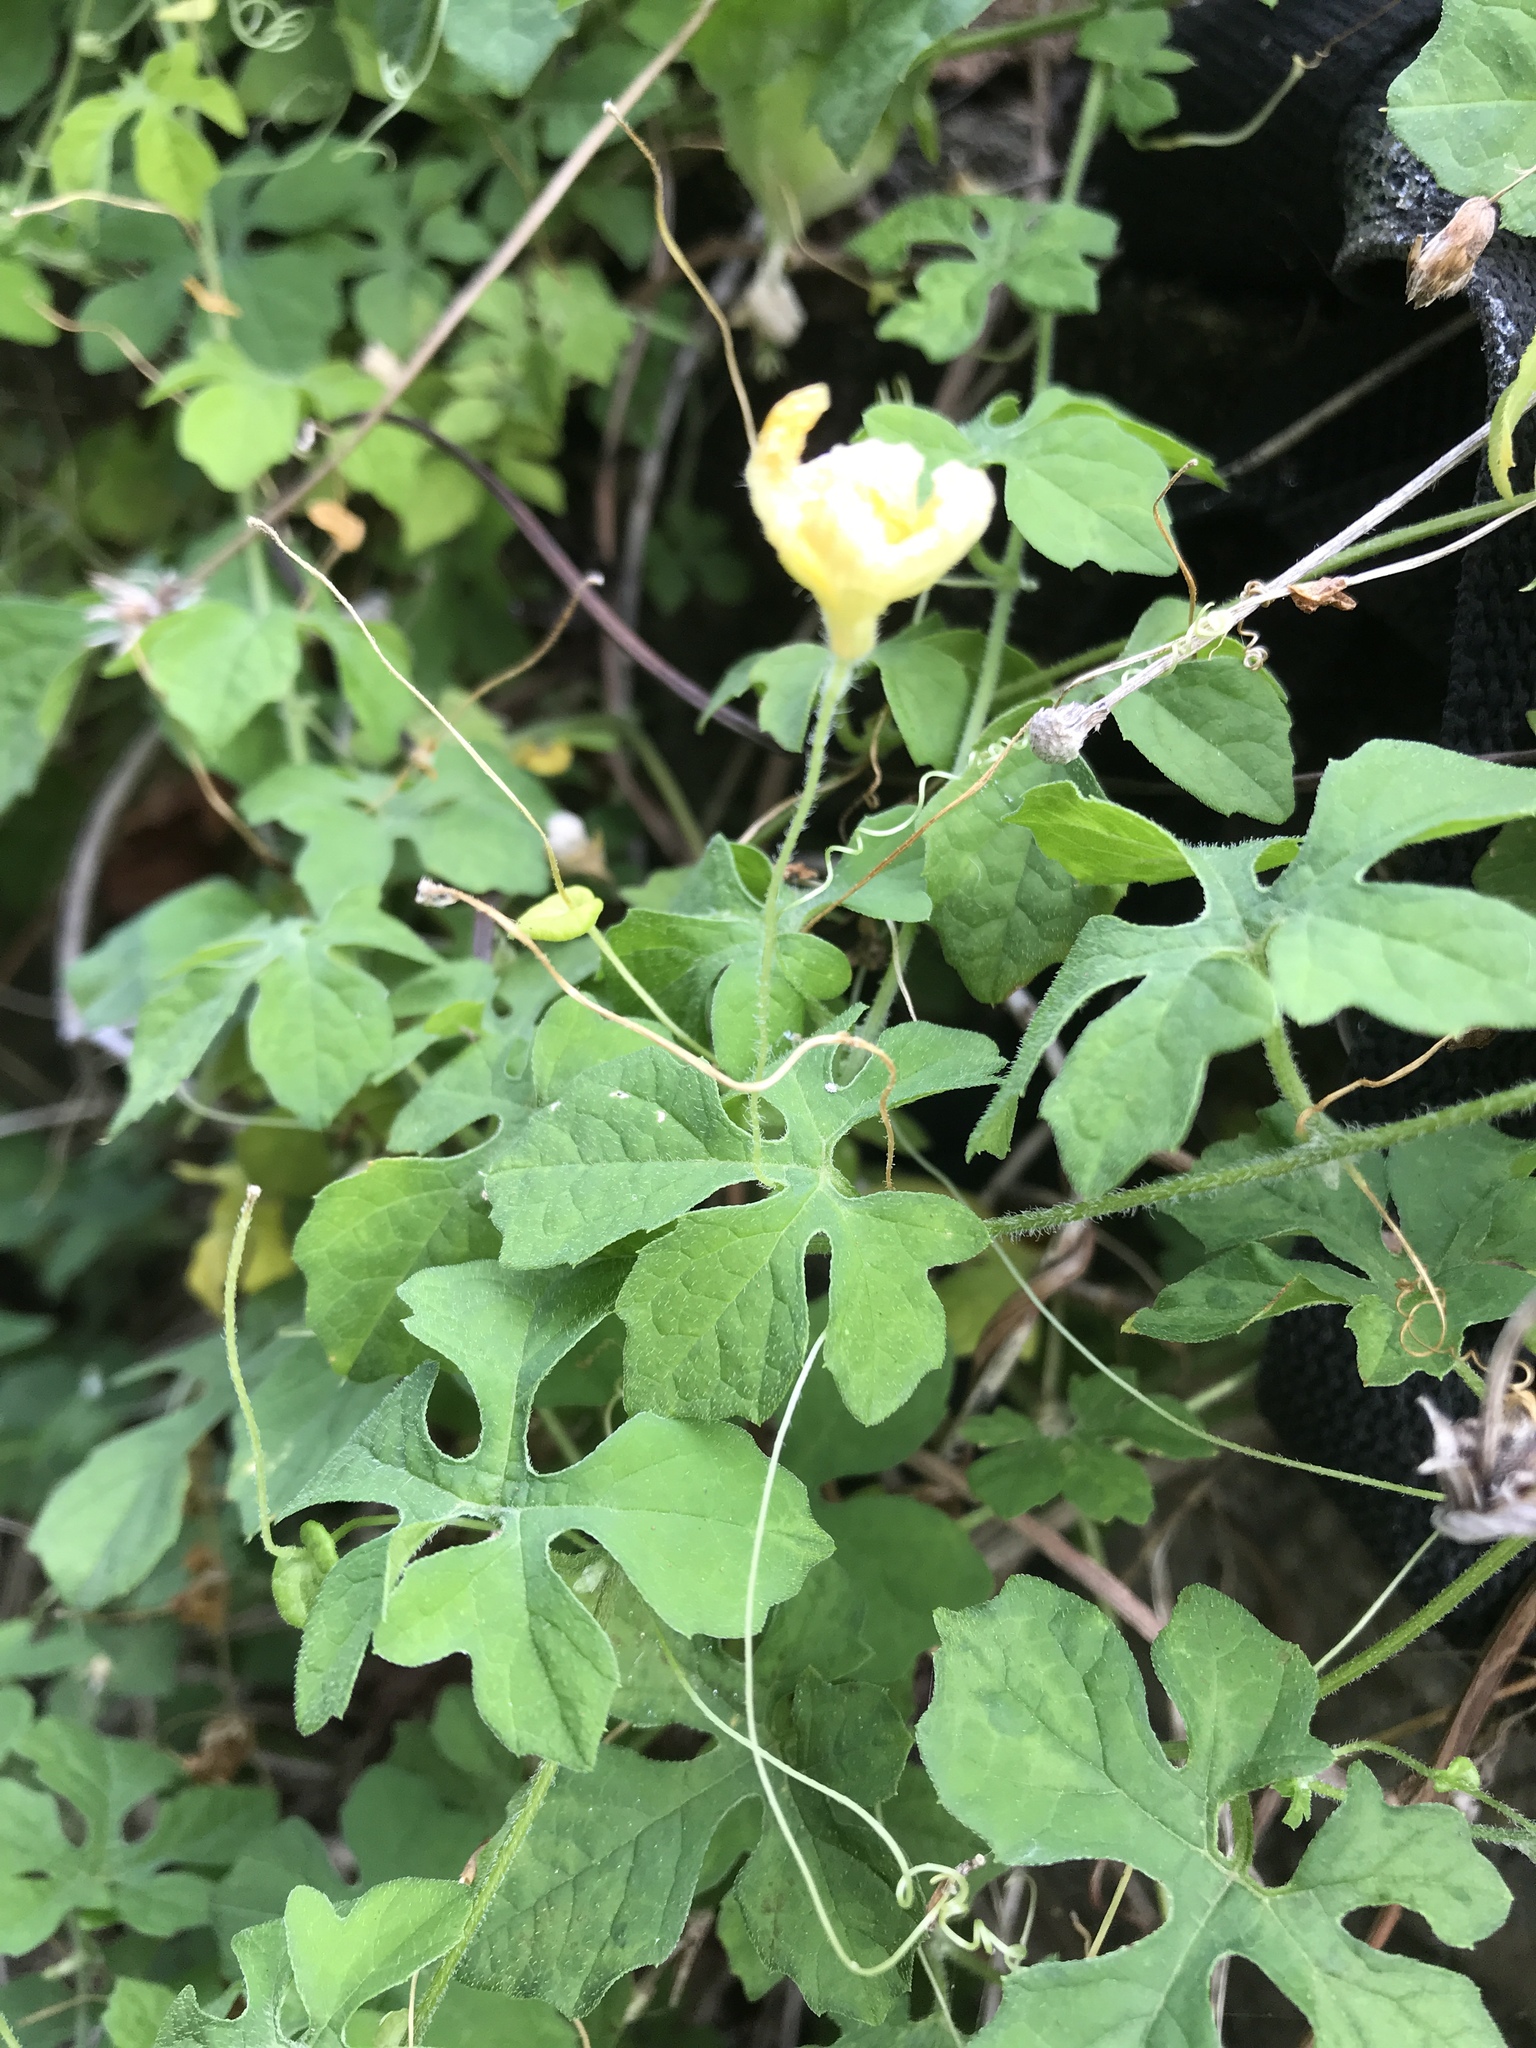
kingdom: Plantae
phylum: Tracheophyta
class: Magnoliopsida
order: Cucurbitales
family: Cucurbitaceae
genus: Momordica
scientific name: Momordica charantia
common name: Balsampear
